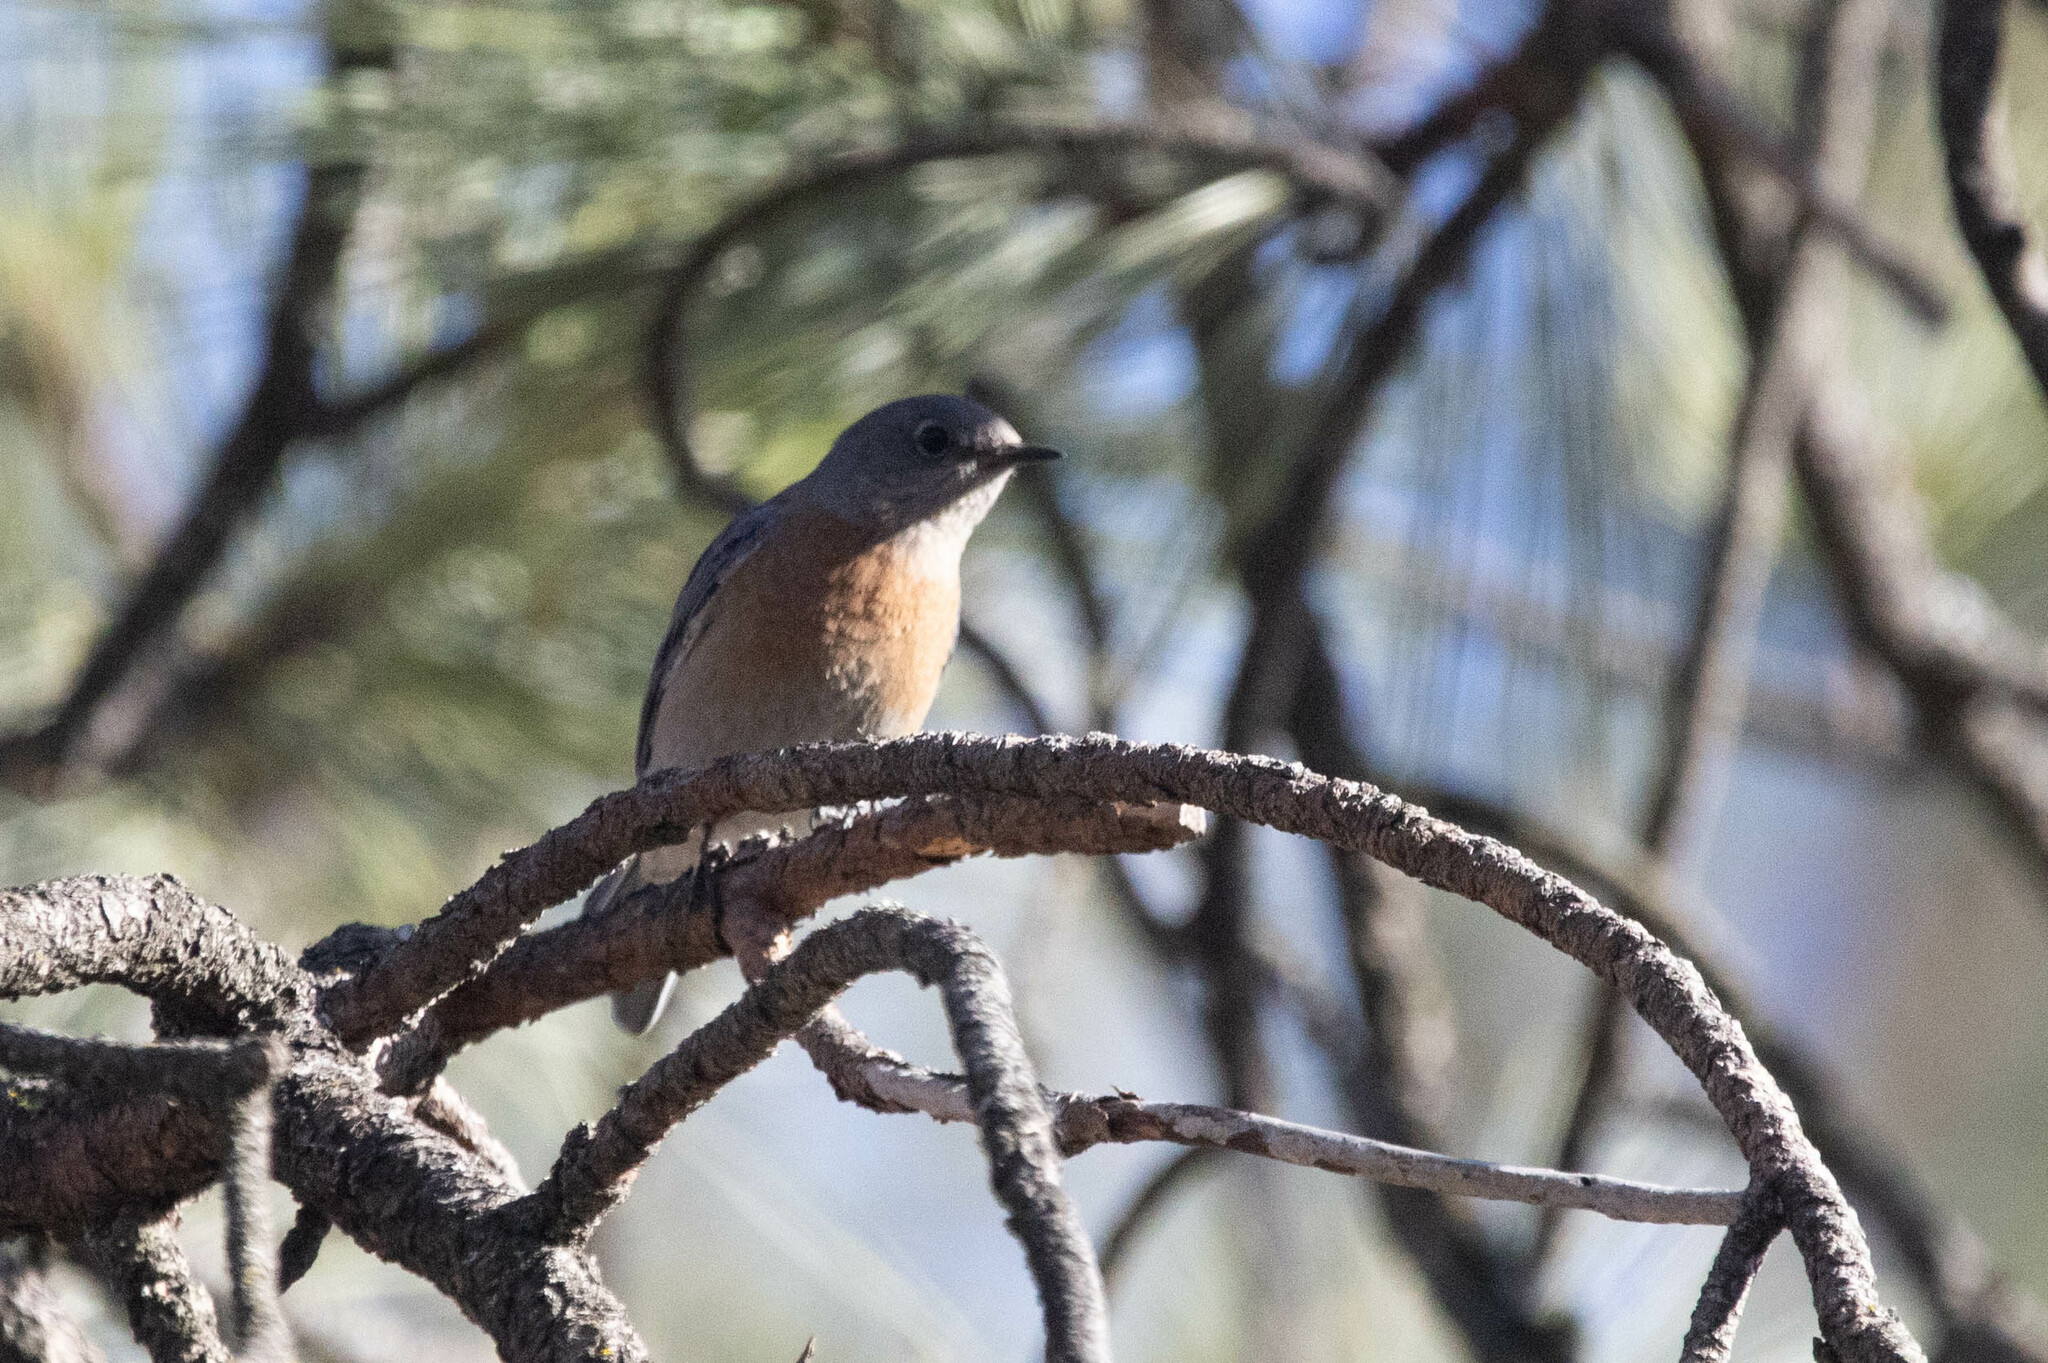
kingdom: Animalia
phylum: Chordata
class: Aves
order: Passeriformes
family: Turdidae
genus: Sialia
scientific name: Sialia mexicana
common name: Western bluebird
